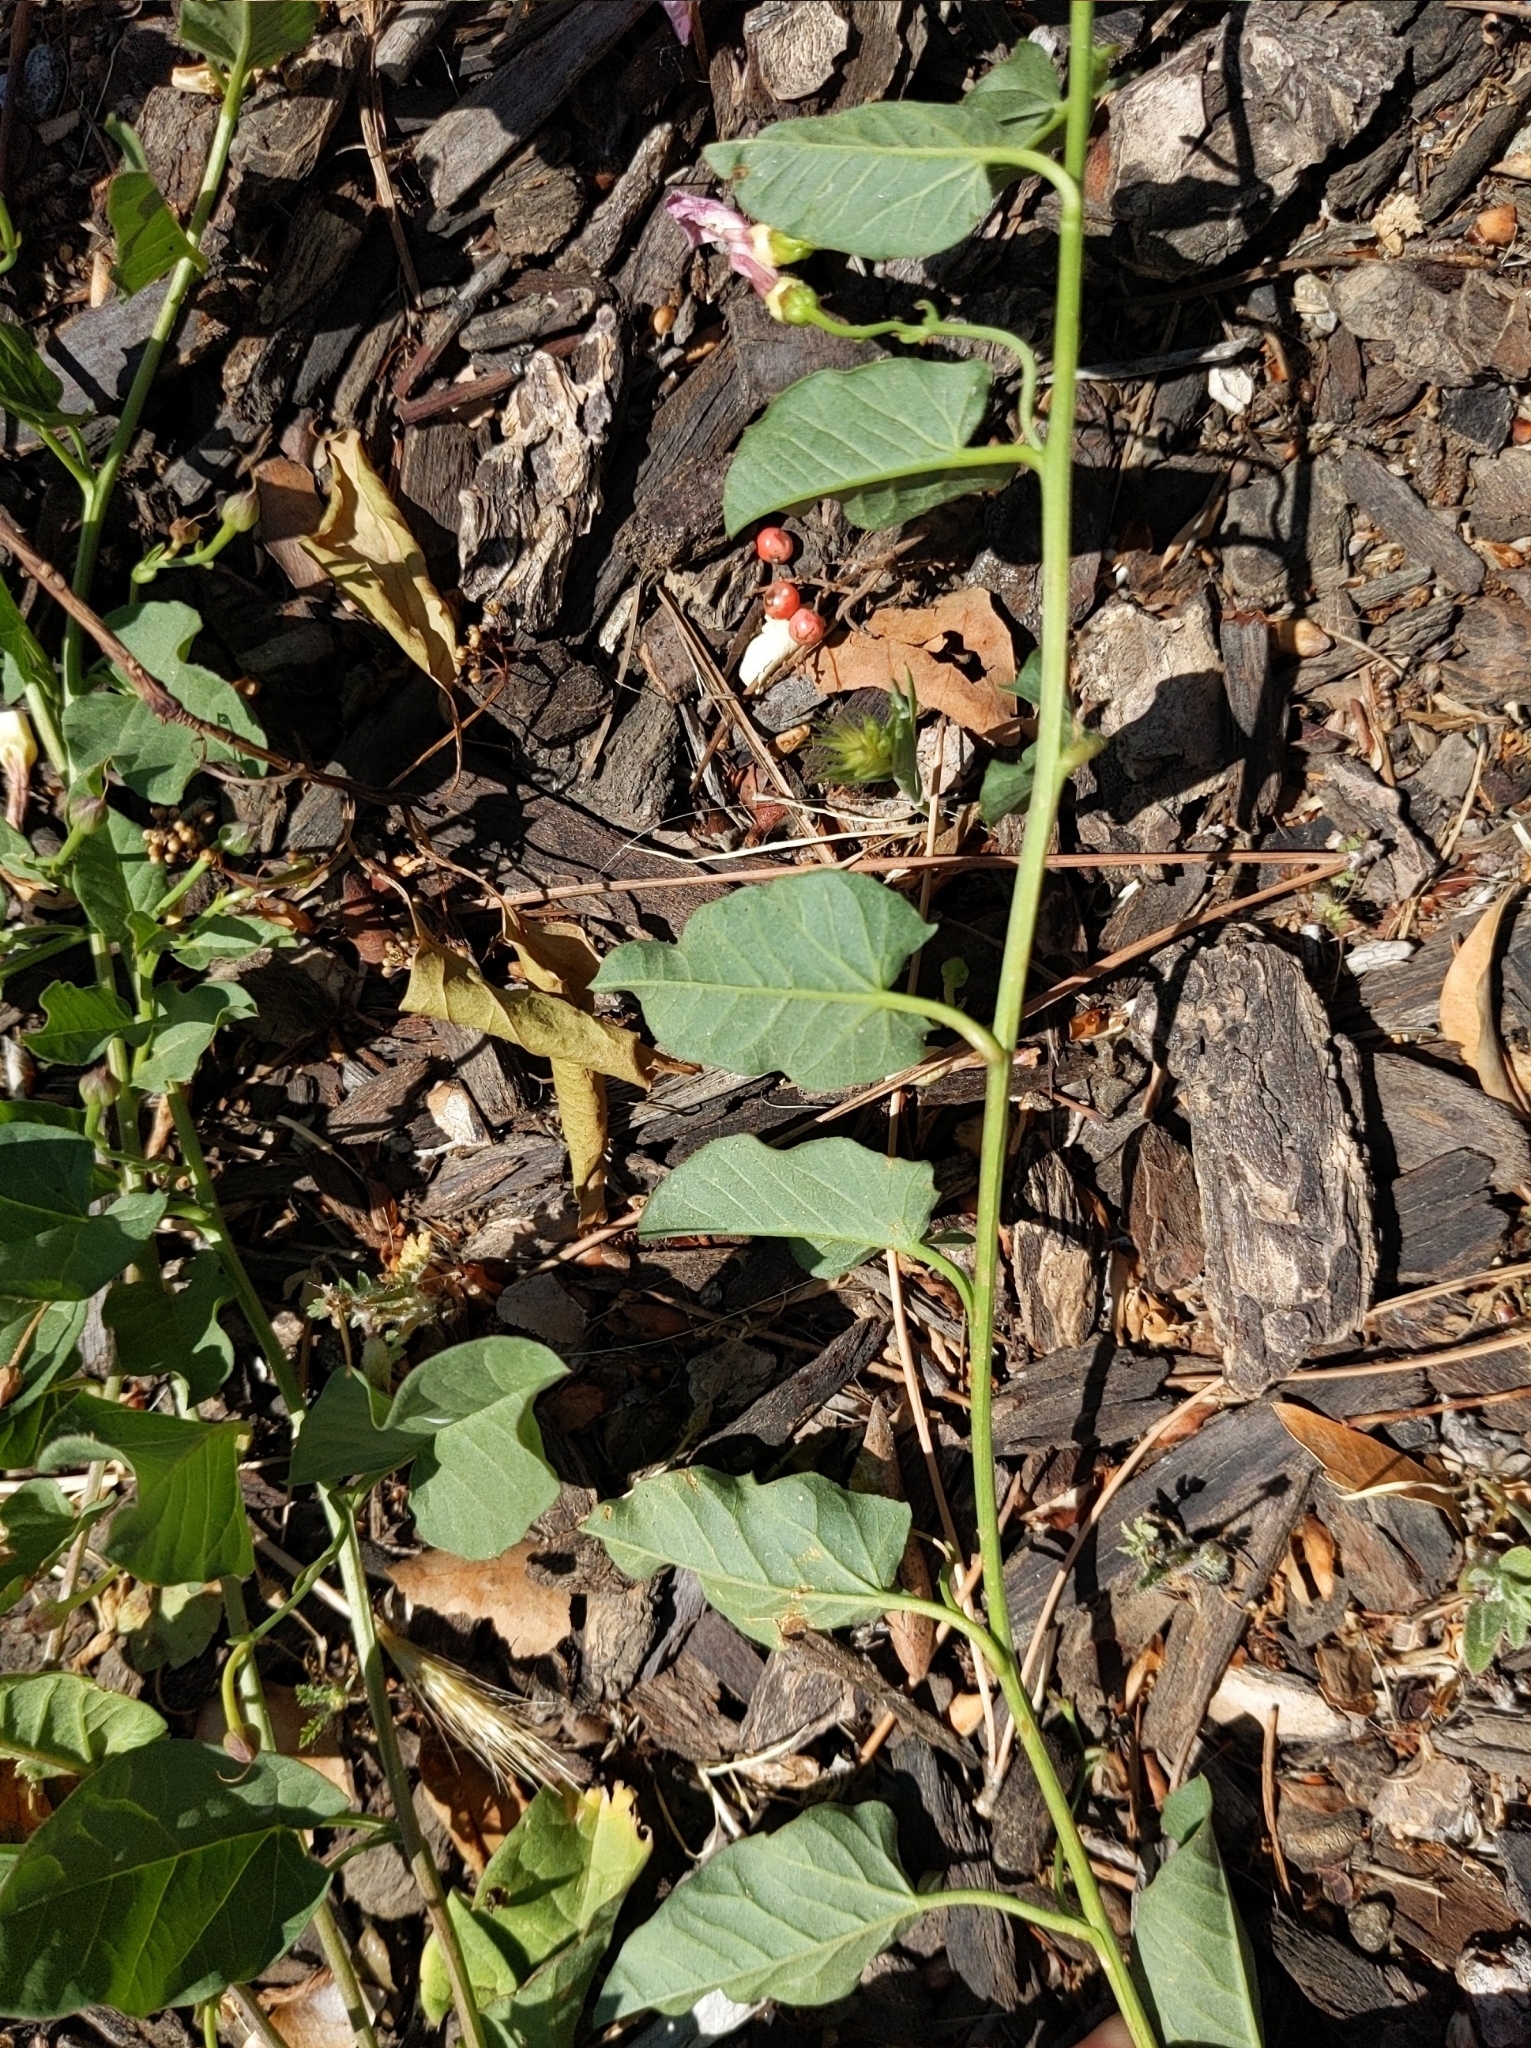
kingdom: Plantae
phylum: Tracheophyta
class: Magnoliopsida
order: Solanales
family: Convolvulaceae
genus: Convolvulus
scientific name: Convolvulus arvensis
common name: Field bindweed
